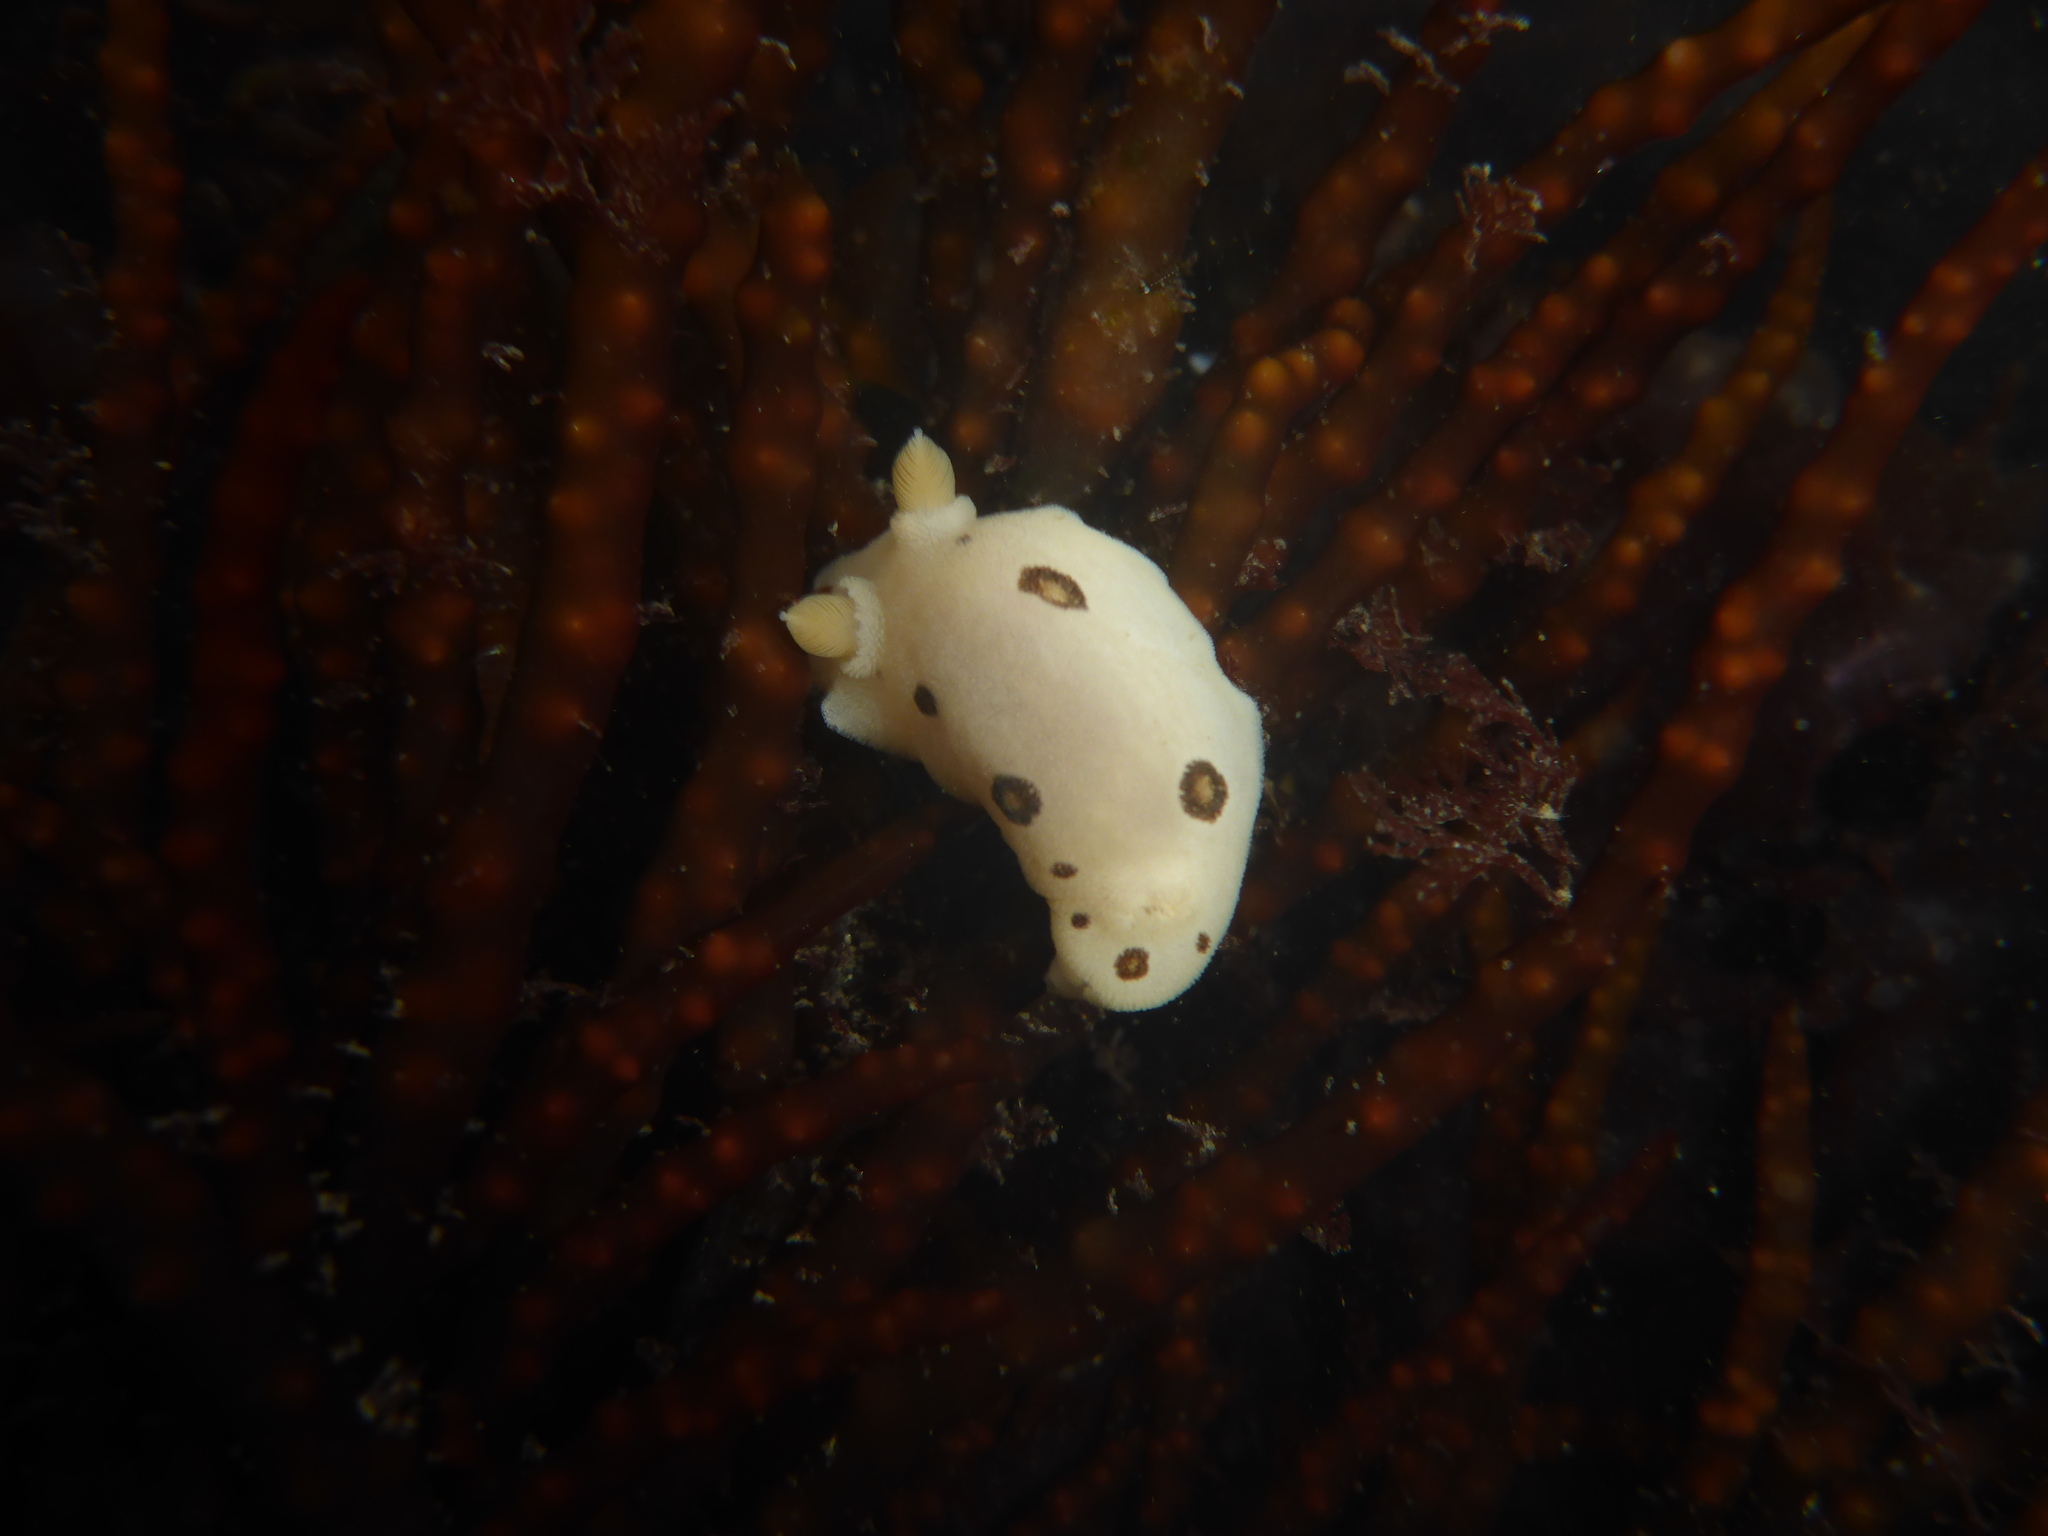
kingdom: Animalia
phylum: Mollusca
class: Gastropoda
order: Nudibranchia
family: Discodorididae
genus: Diaulula
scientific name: Diaulula sandiegensis
